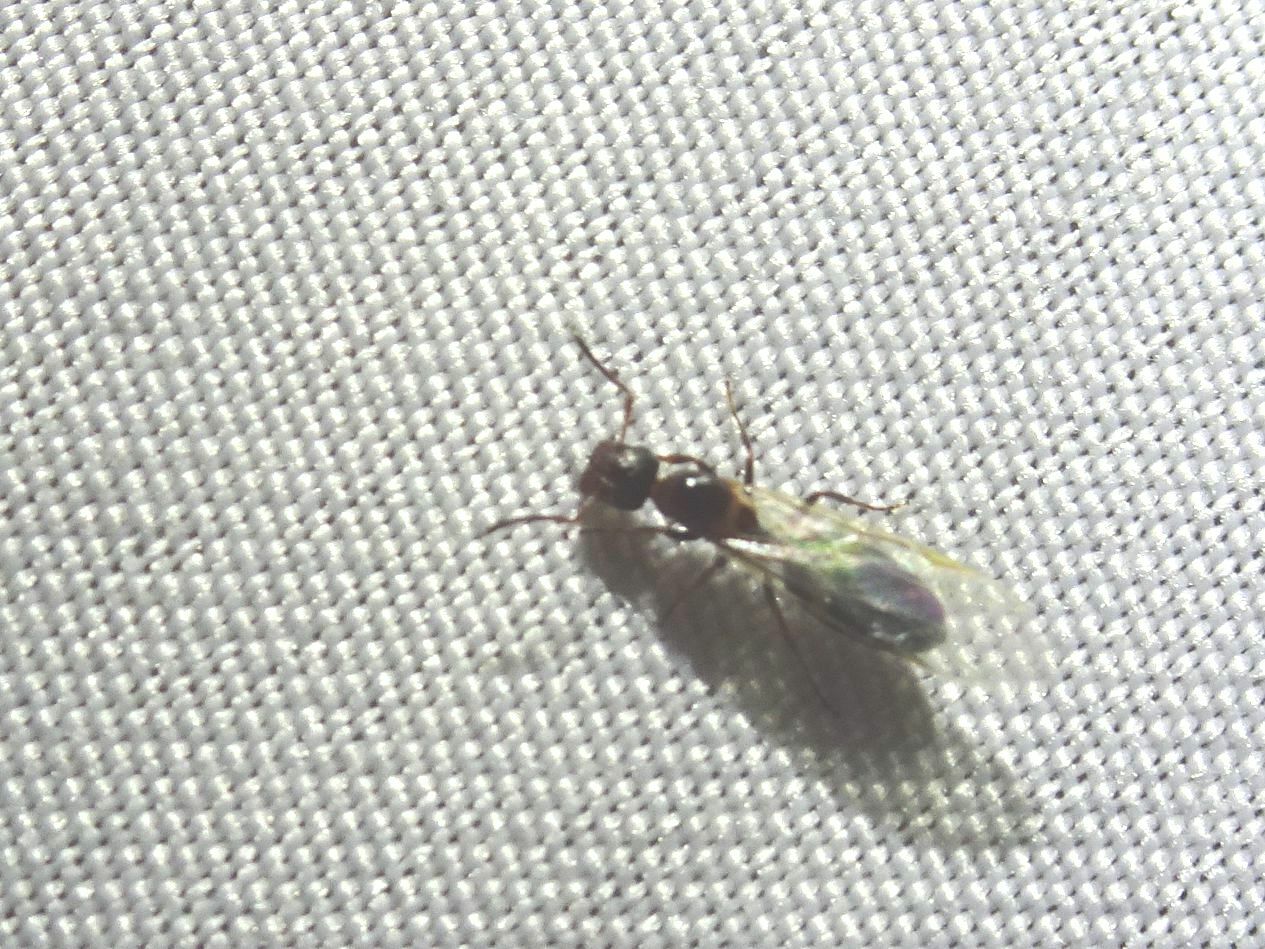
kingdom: Animalia
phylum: Arthropoda
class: Insecta
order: Hymenoptera
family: Formicidae
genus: Camponotus
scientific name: Camponotus truncatus
